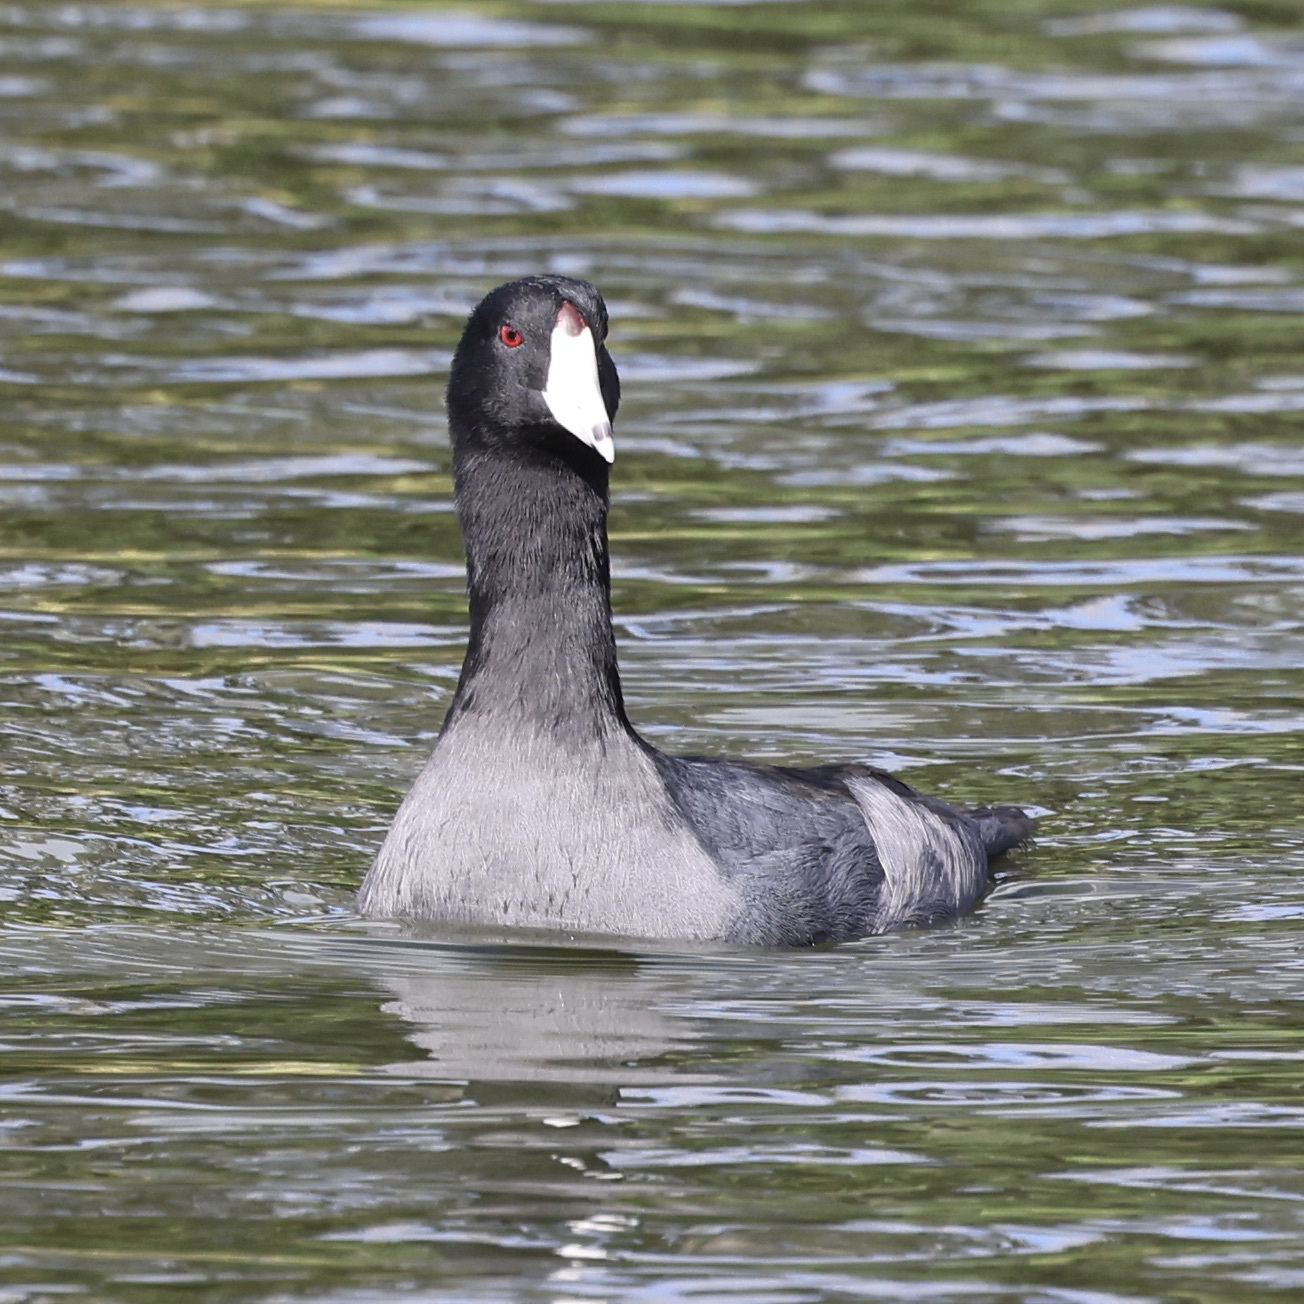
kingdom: Animalia
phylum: Chordata
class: Aves
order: Gruiformes
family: Rallidae
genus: Fulica
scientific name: Fulica americana
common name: American coot
